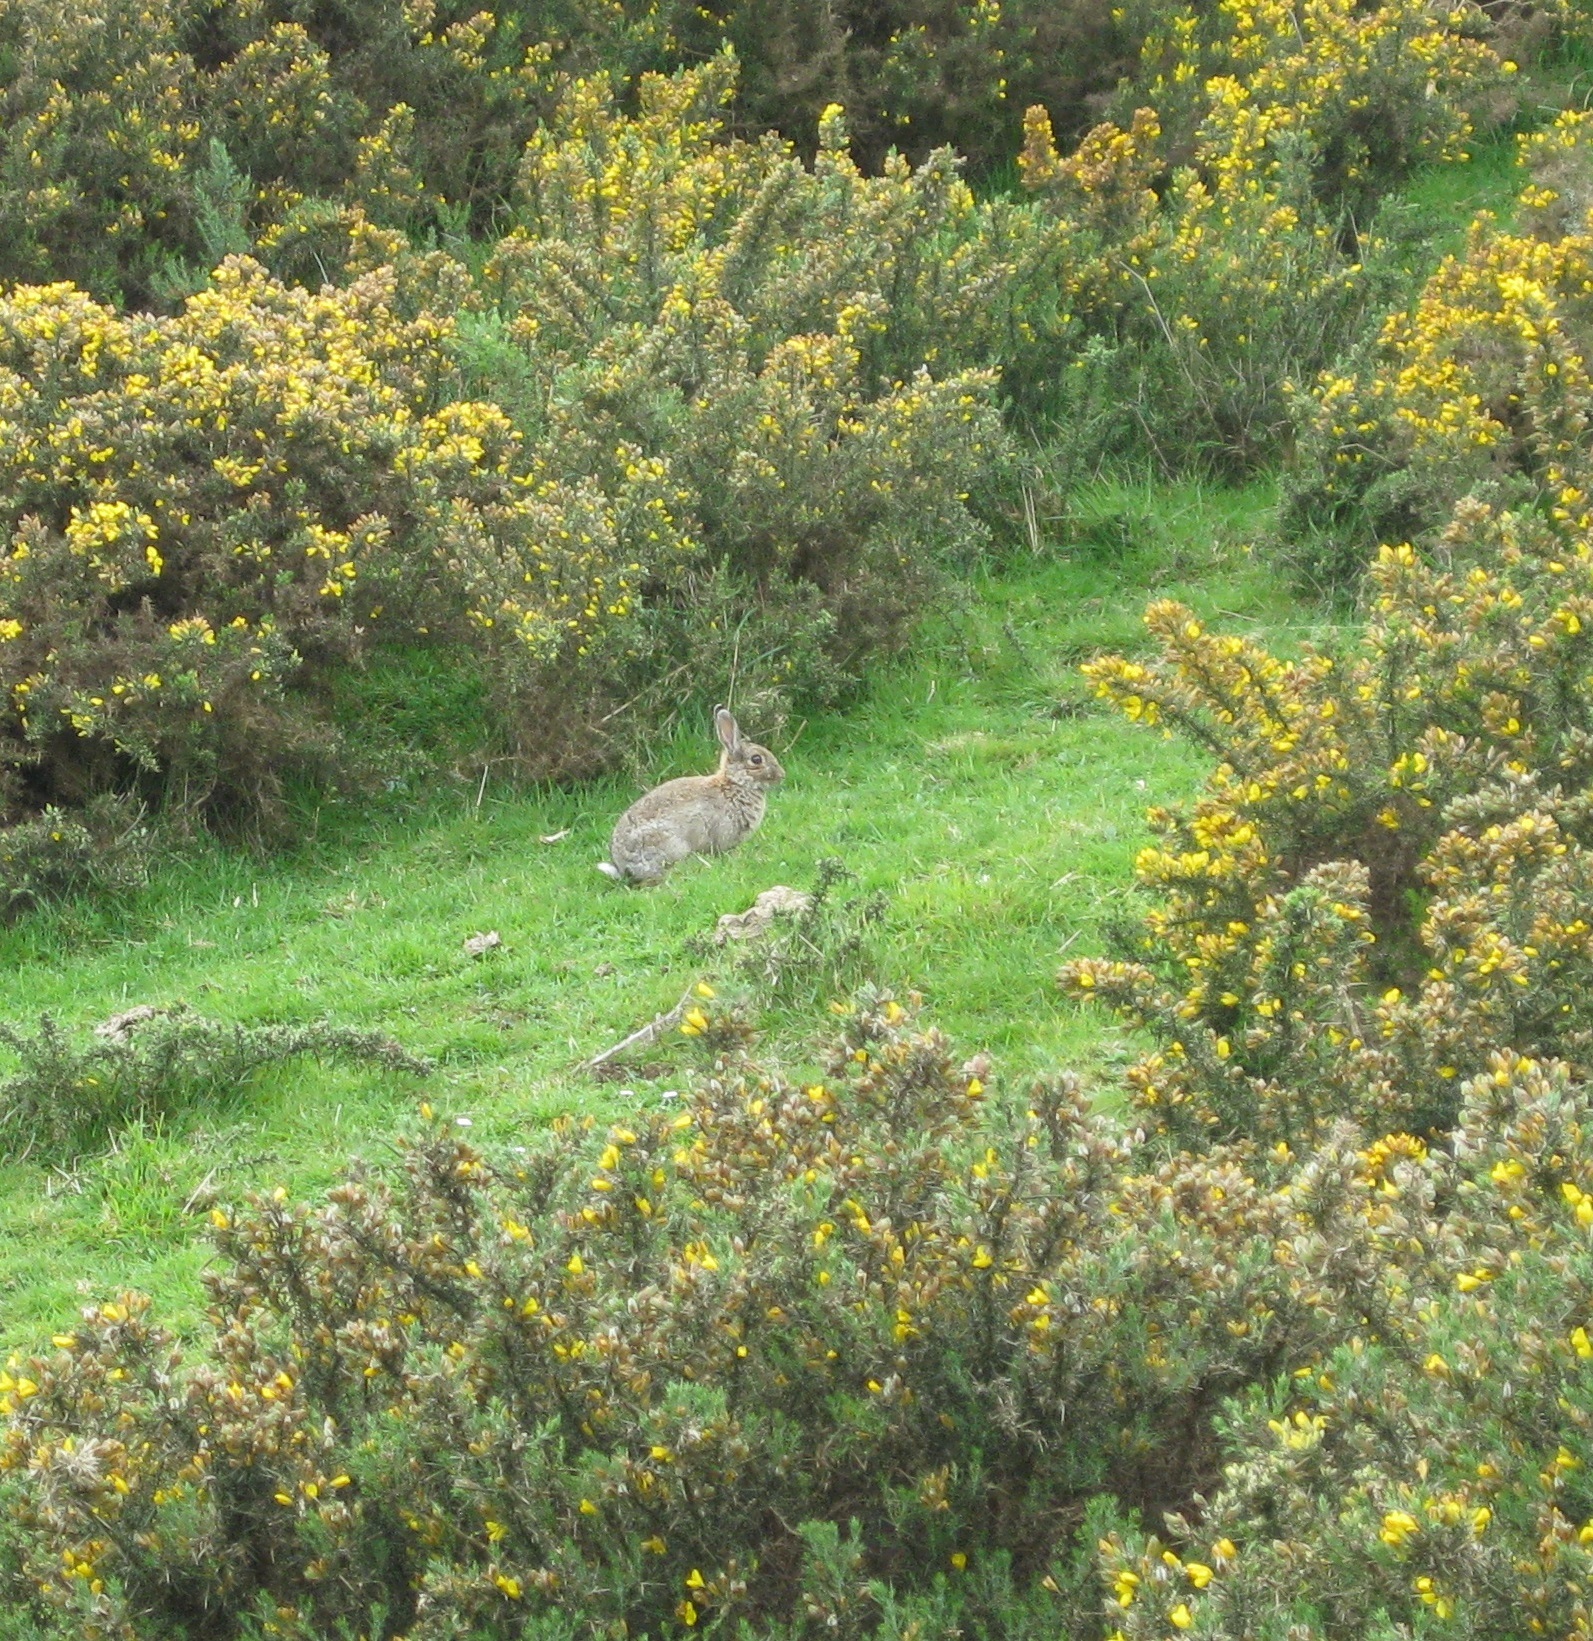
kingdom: Animalia
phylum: Chordata
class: Mammalia
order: Lagomorpha
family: Leporidae
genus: Oryctolagus
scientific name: Oryctolagus cuniculus
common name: European rabbit
